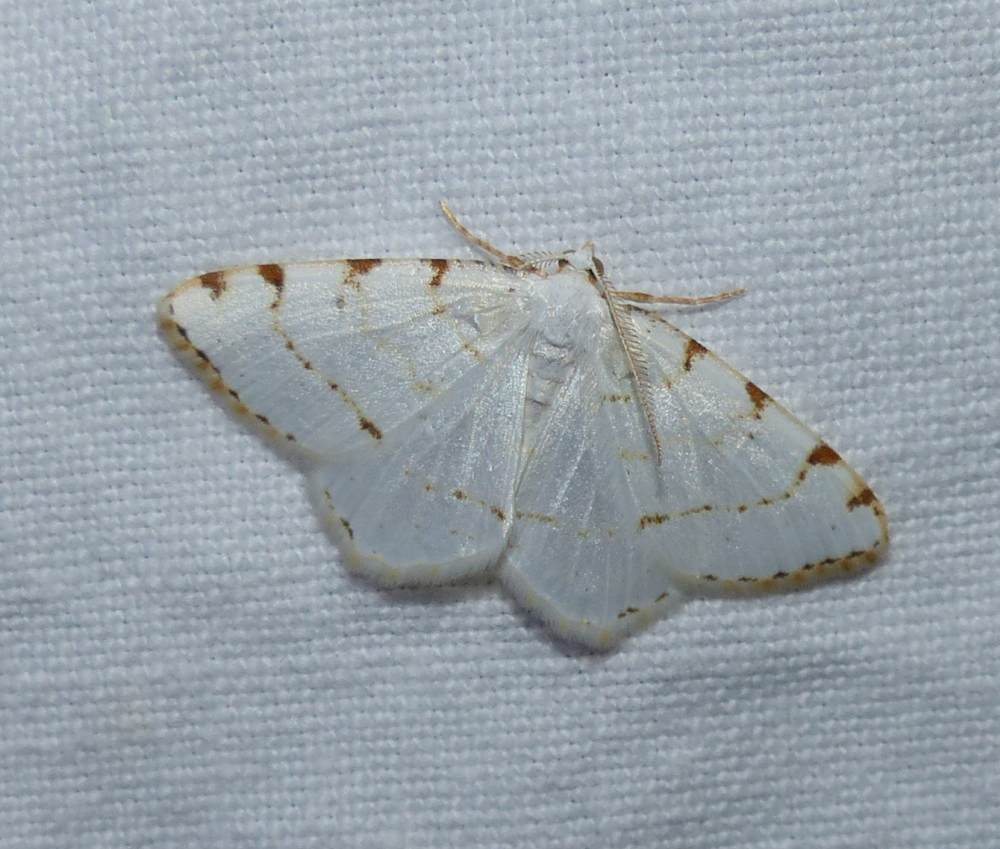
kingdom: Animalia
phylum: Arthropoda
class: Insecta
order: Lepidoptera
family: Geometridae
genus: Macaria
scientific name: Macaria pustularia
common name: Lesser maple spanworm moth
